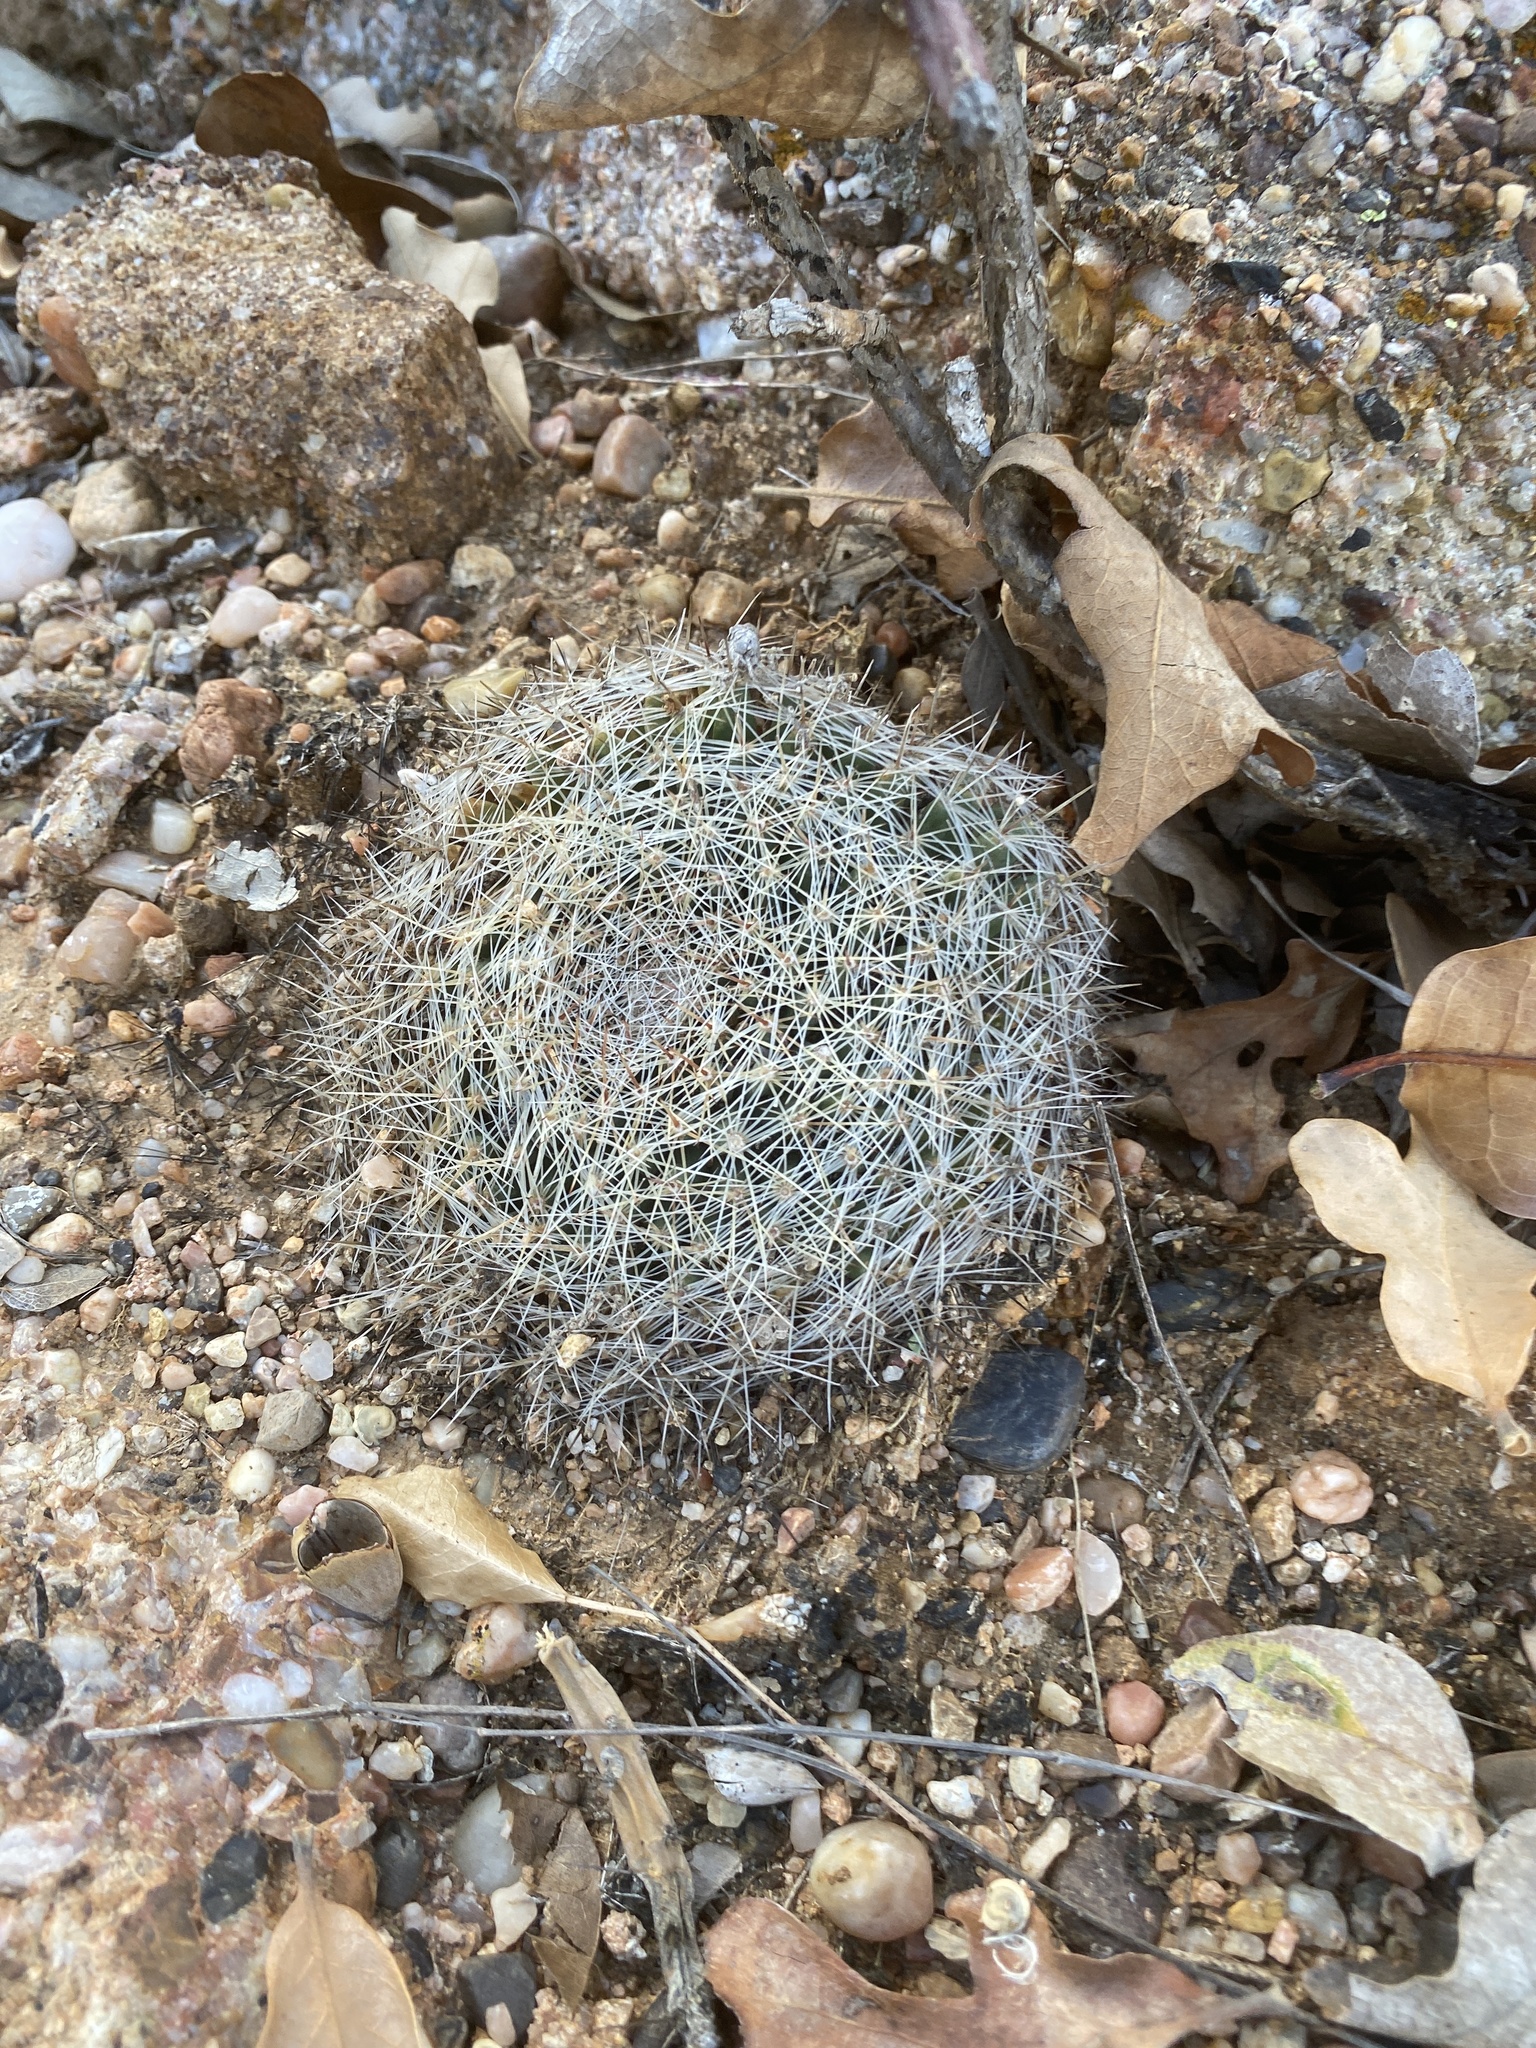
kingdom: Plantae
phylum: Tracheophyta
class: Magnoliopsida
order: Caryophyllales
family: Cactaceae
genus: Mammillaria
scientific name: Mammillaria heyderi
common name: Little nipple cactus
